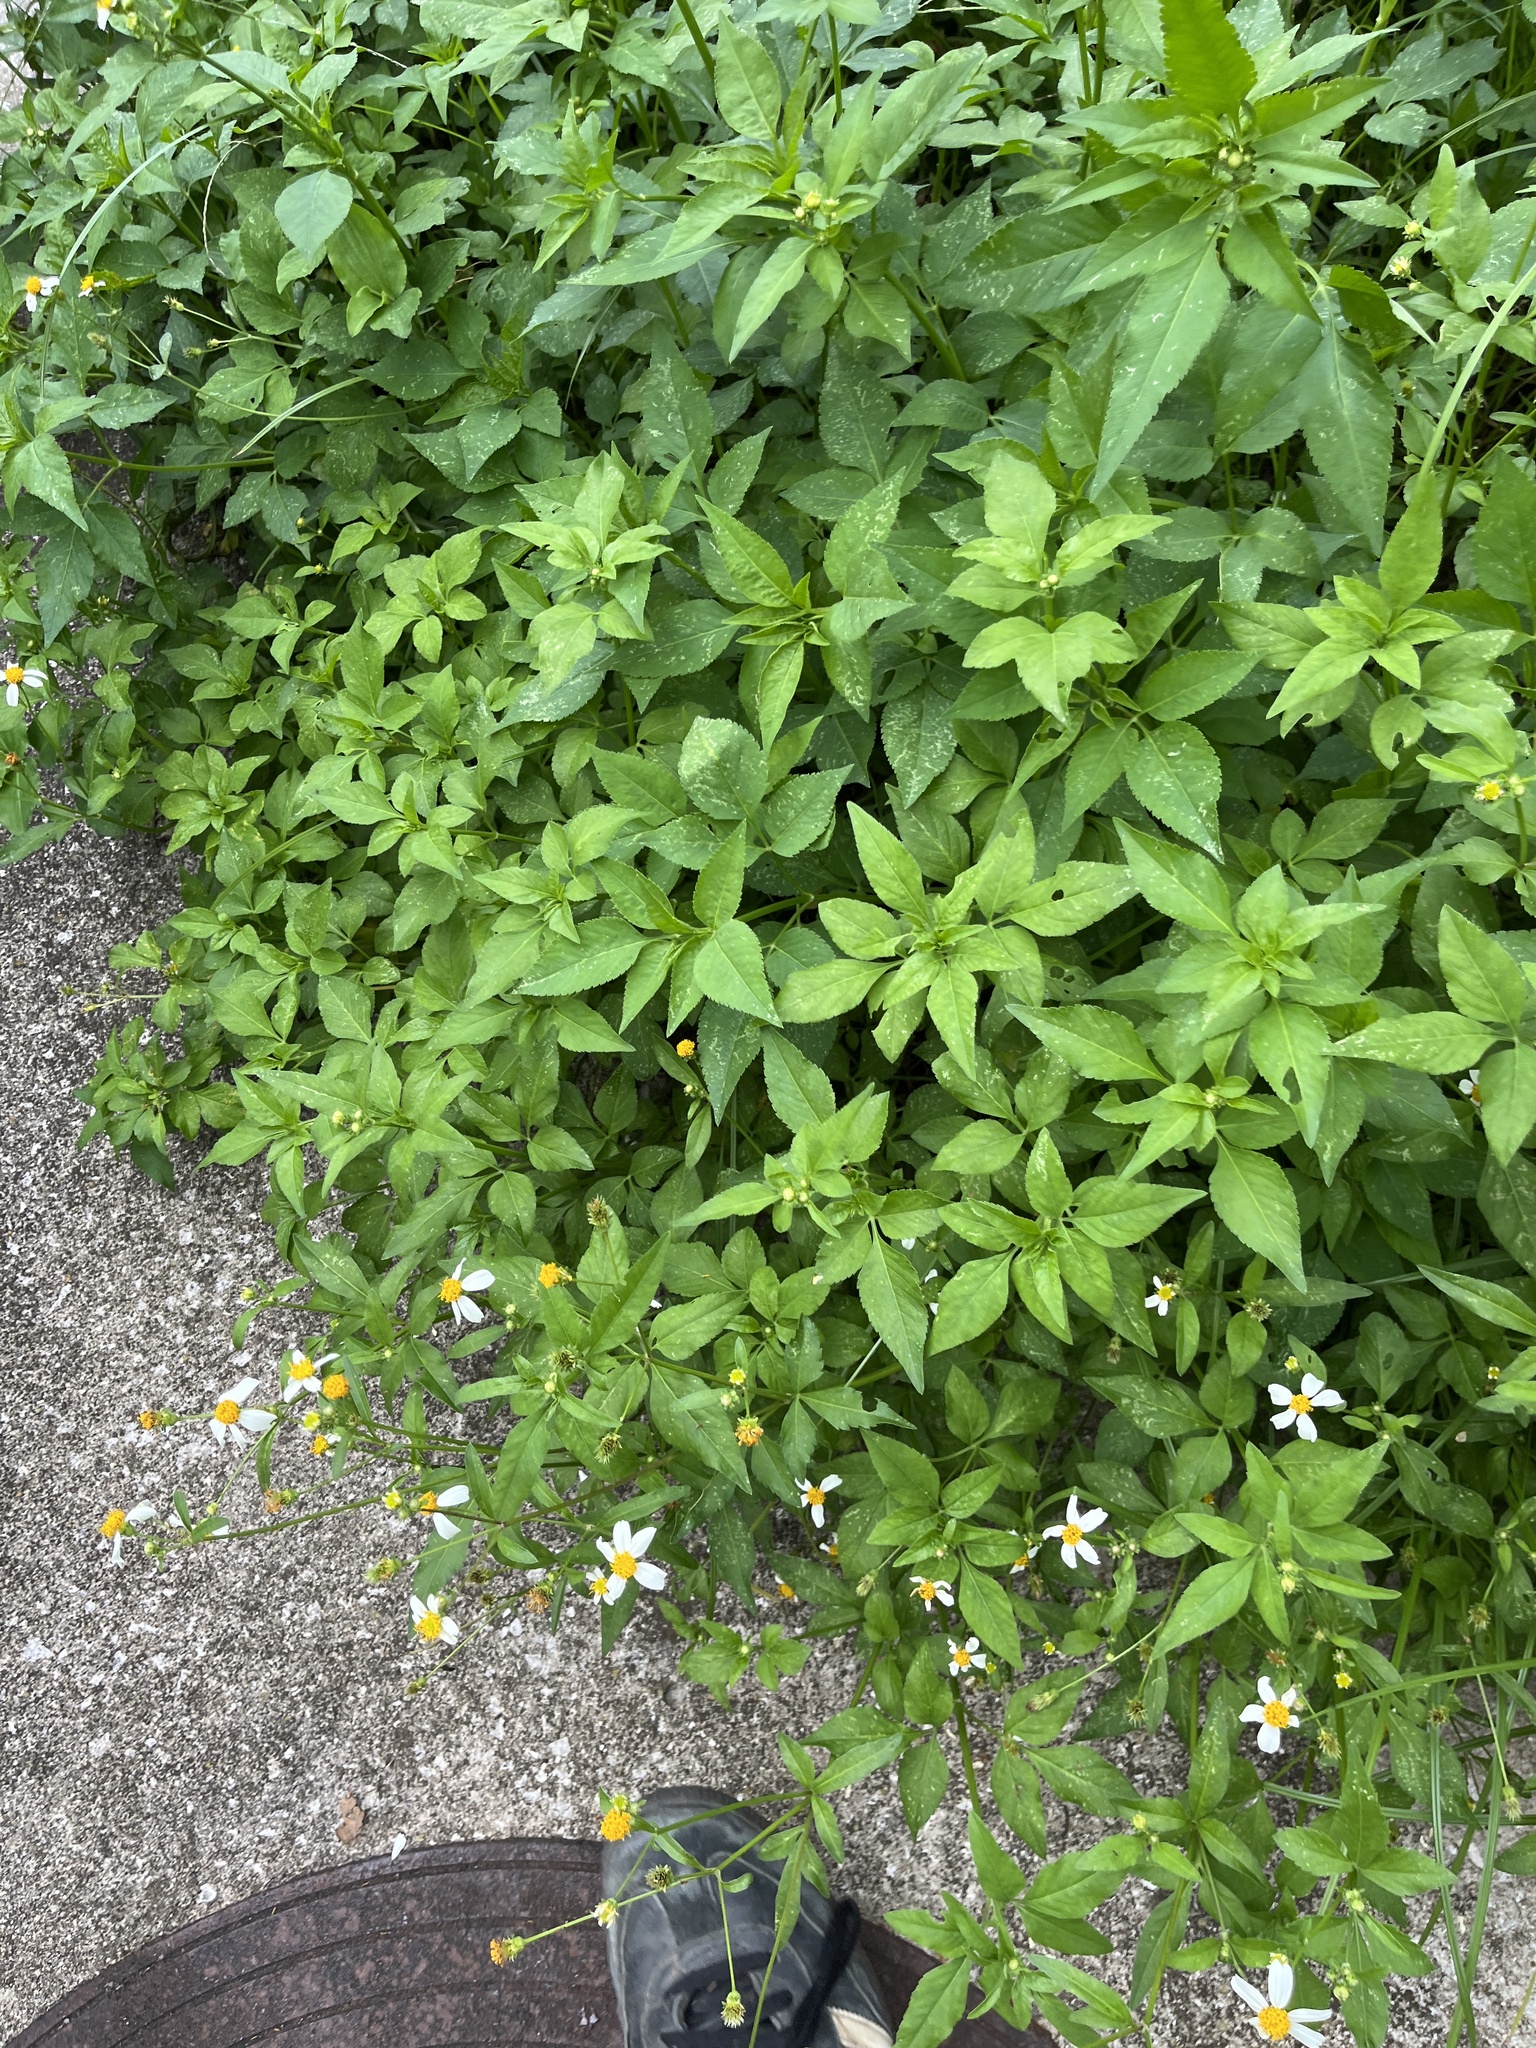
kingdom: Plantae
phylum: Tracheophyta
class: Magnoliopsida
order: Asterales
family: Asteraceae
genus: Bidens
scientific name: Bidens alba
